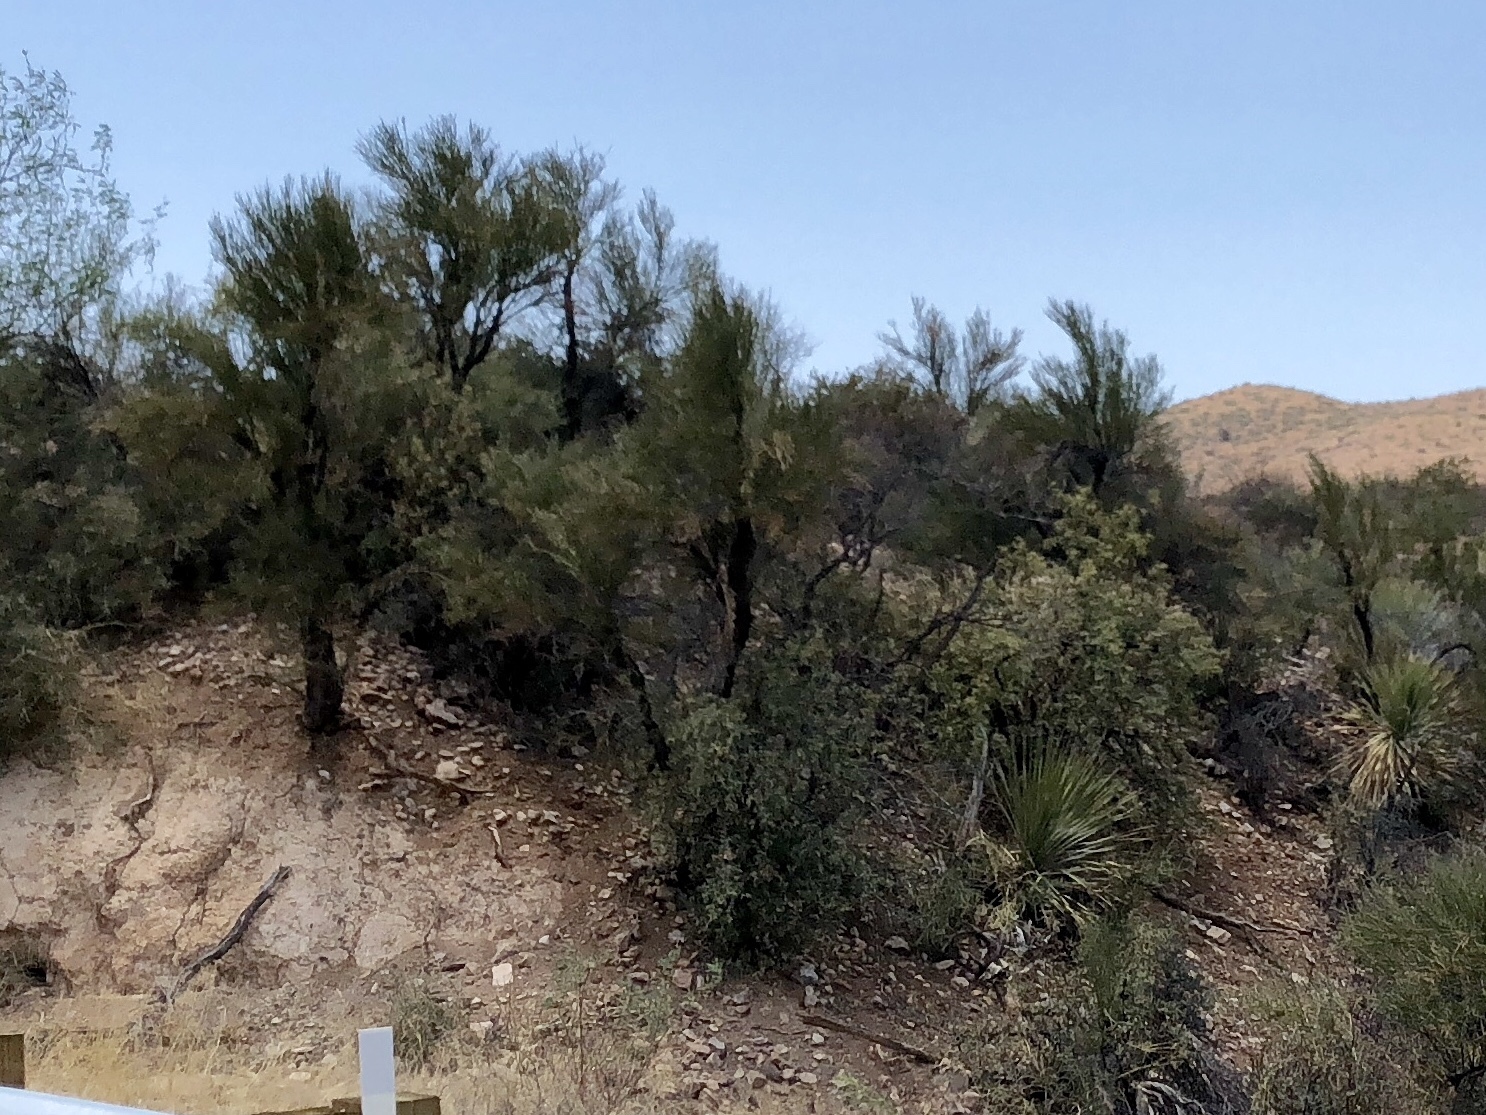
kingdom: Plantae
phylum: Tracheophyta
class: Magnoliopsida
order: Celastrales
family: Celastraceae
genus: Canotia
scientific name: Canotia holacantha
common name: Crucifixion thorns
